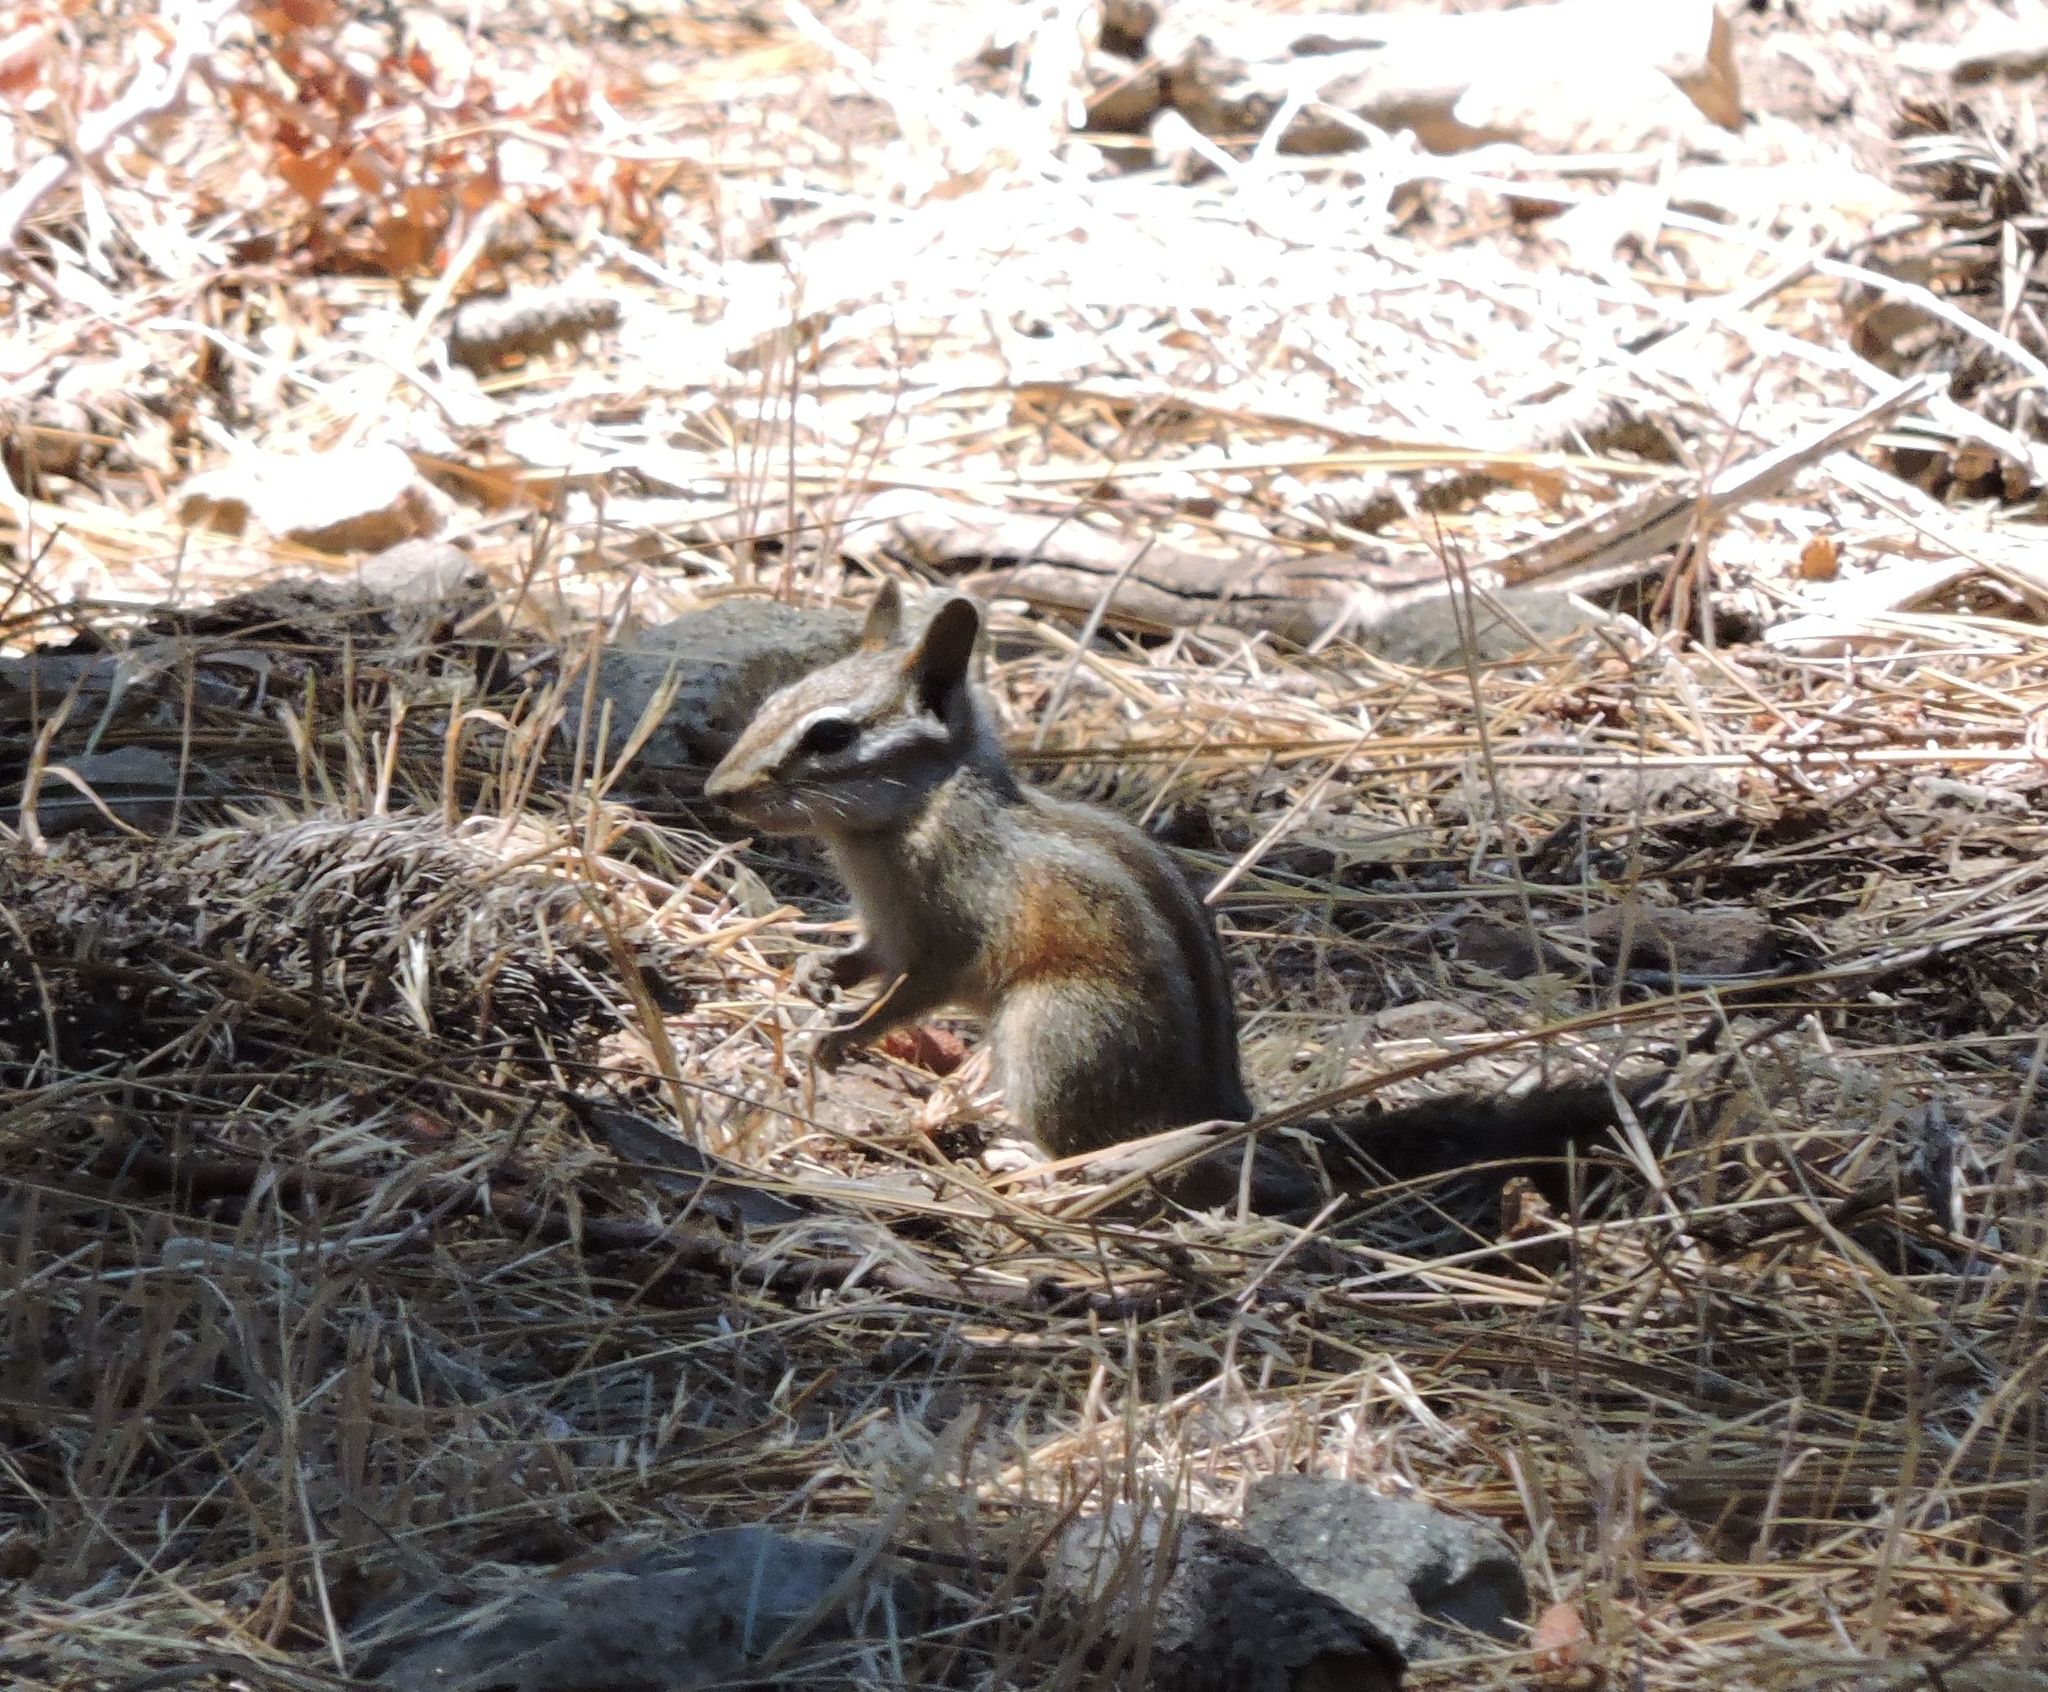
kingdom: Animalia
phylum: Chordata
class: Mammalia
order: Rodentia
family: Sciuridae
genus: Tamias
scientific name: Tamias merriami
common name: Merriam's chipmunk
